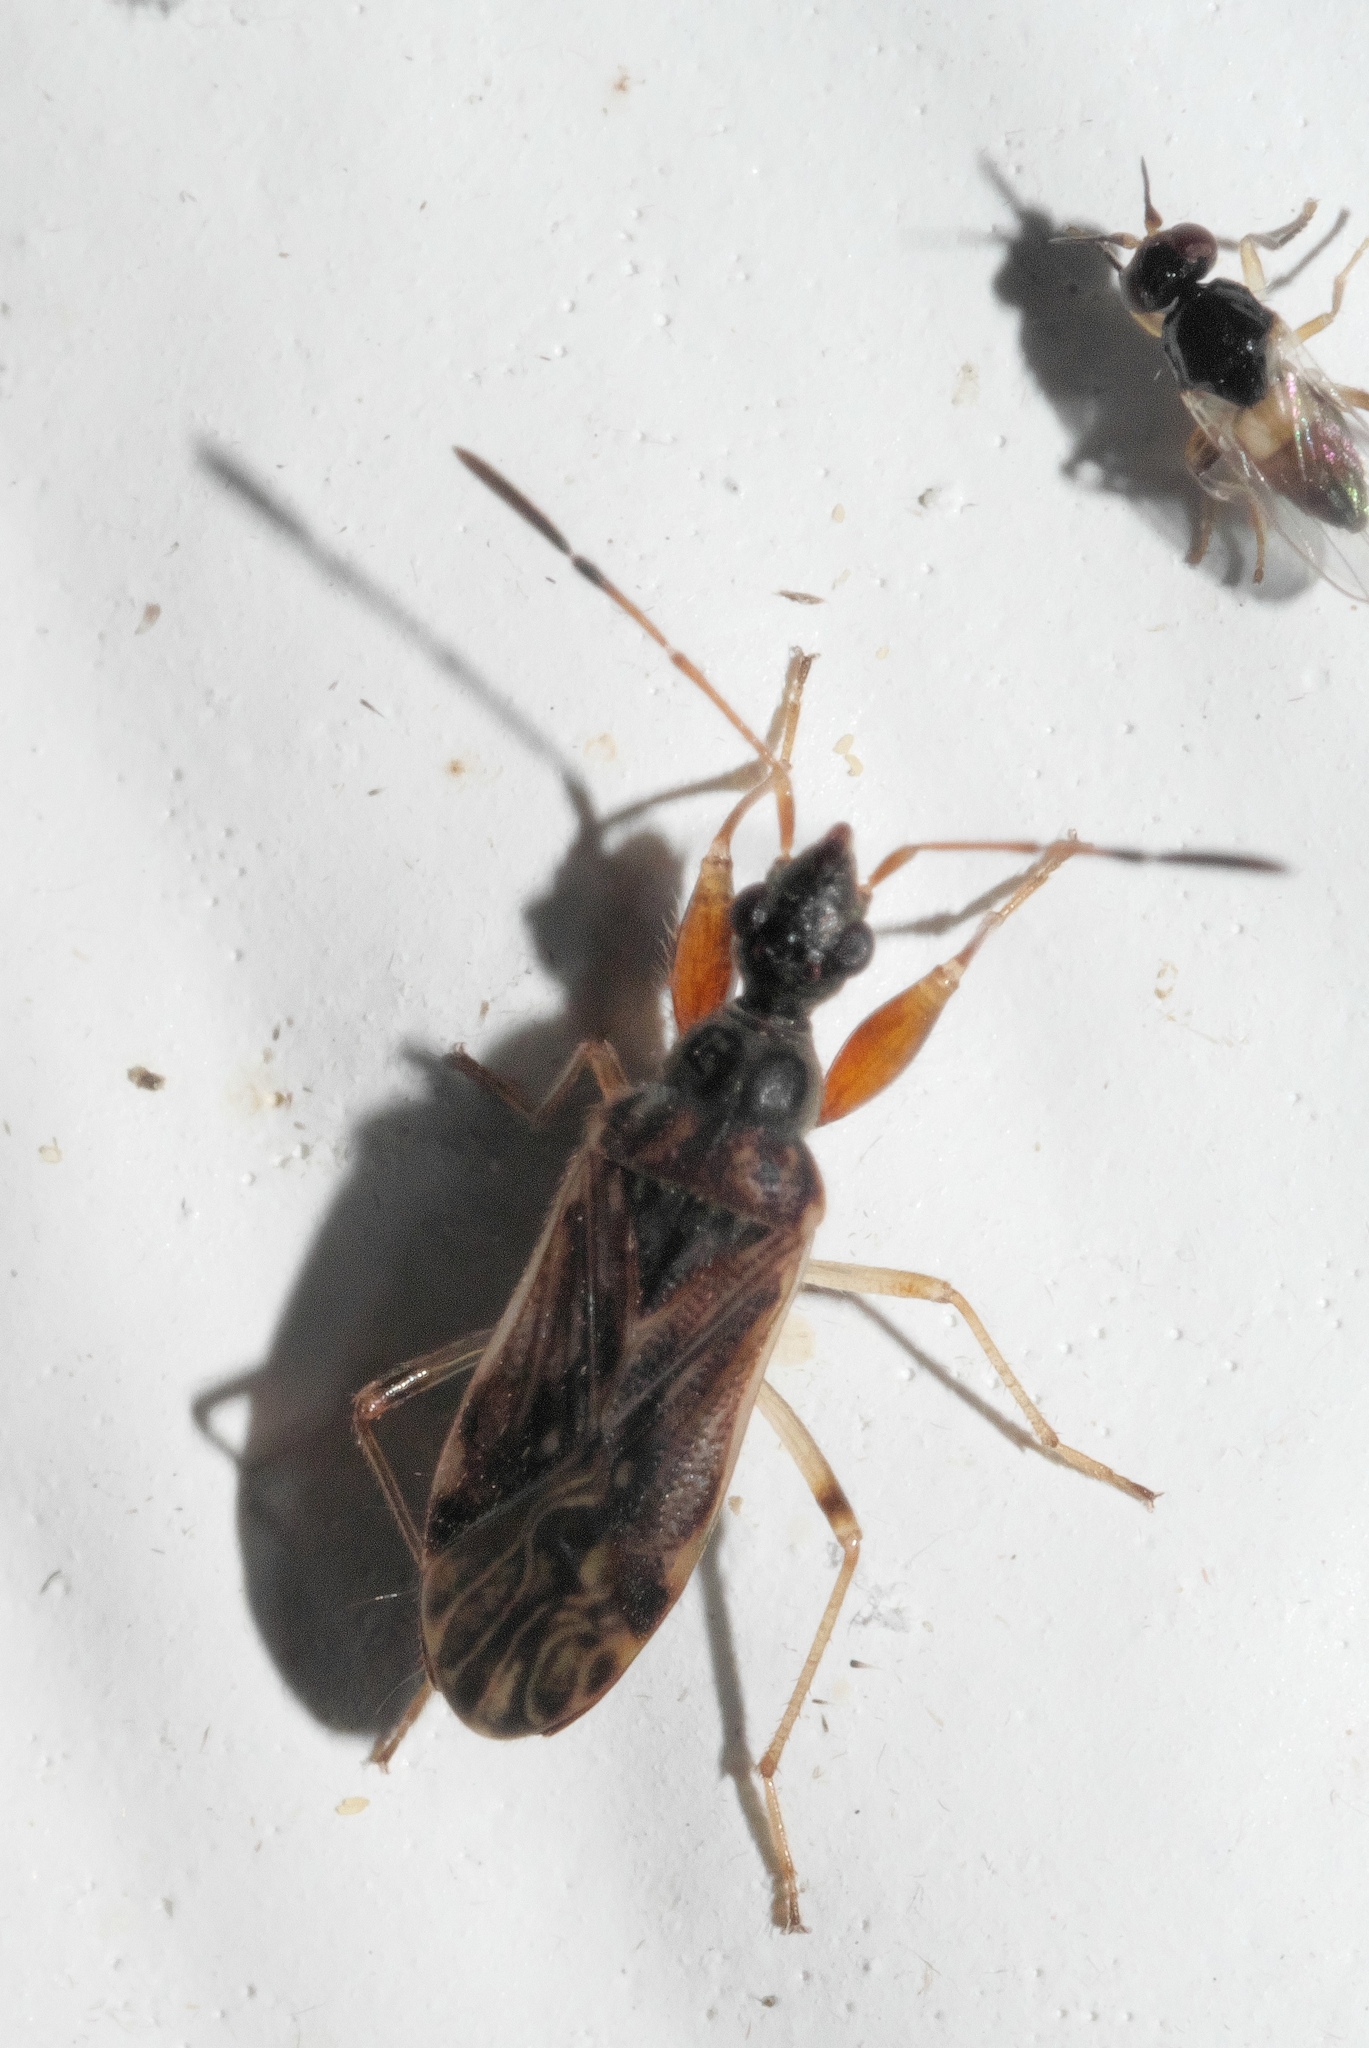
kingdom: Animalia
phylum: Arthropoda
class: Insecta
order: Hemiptera
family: Rhyparochromidae
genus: Heraeus
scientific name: Heraeus plebejus
